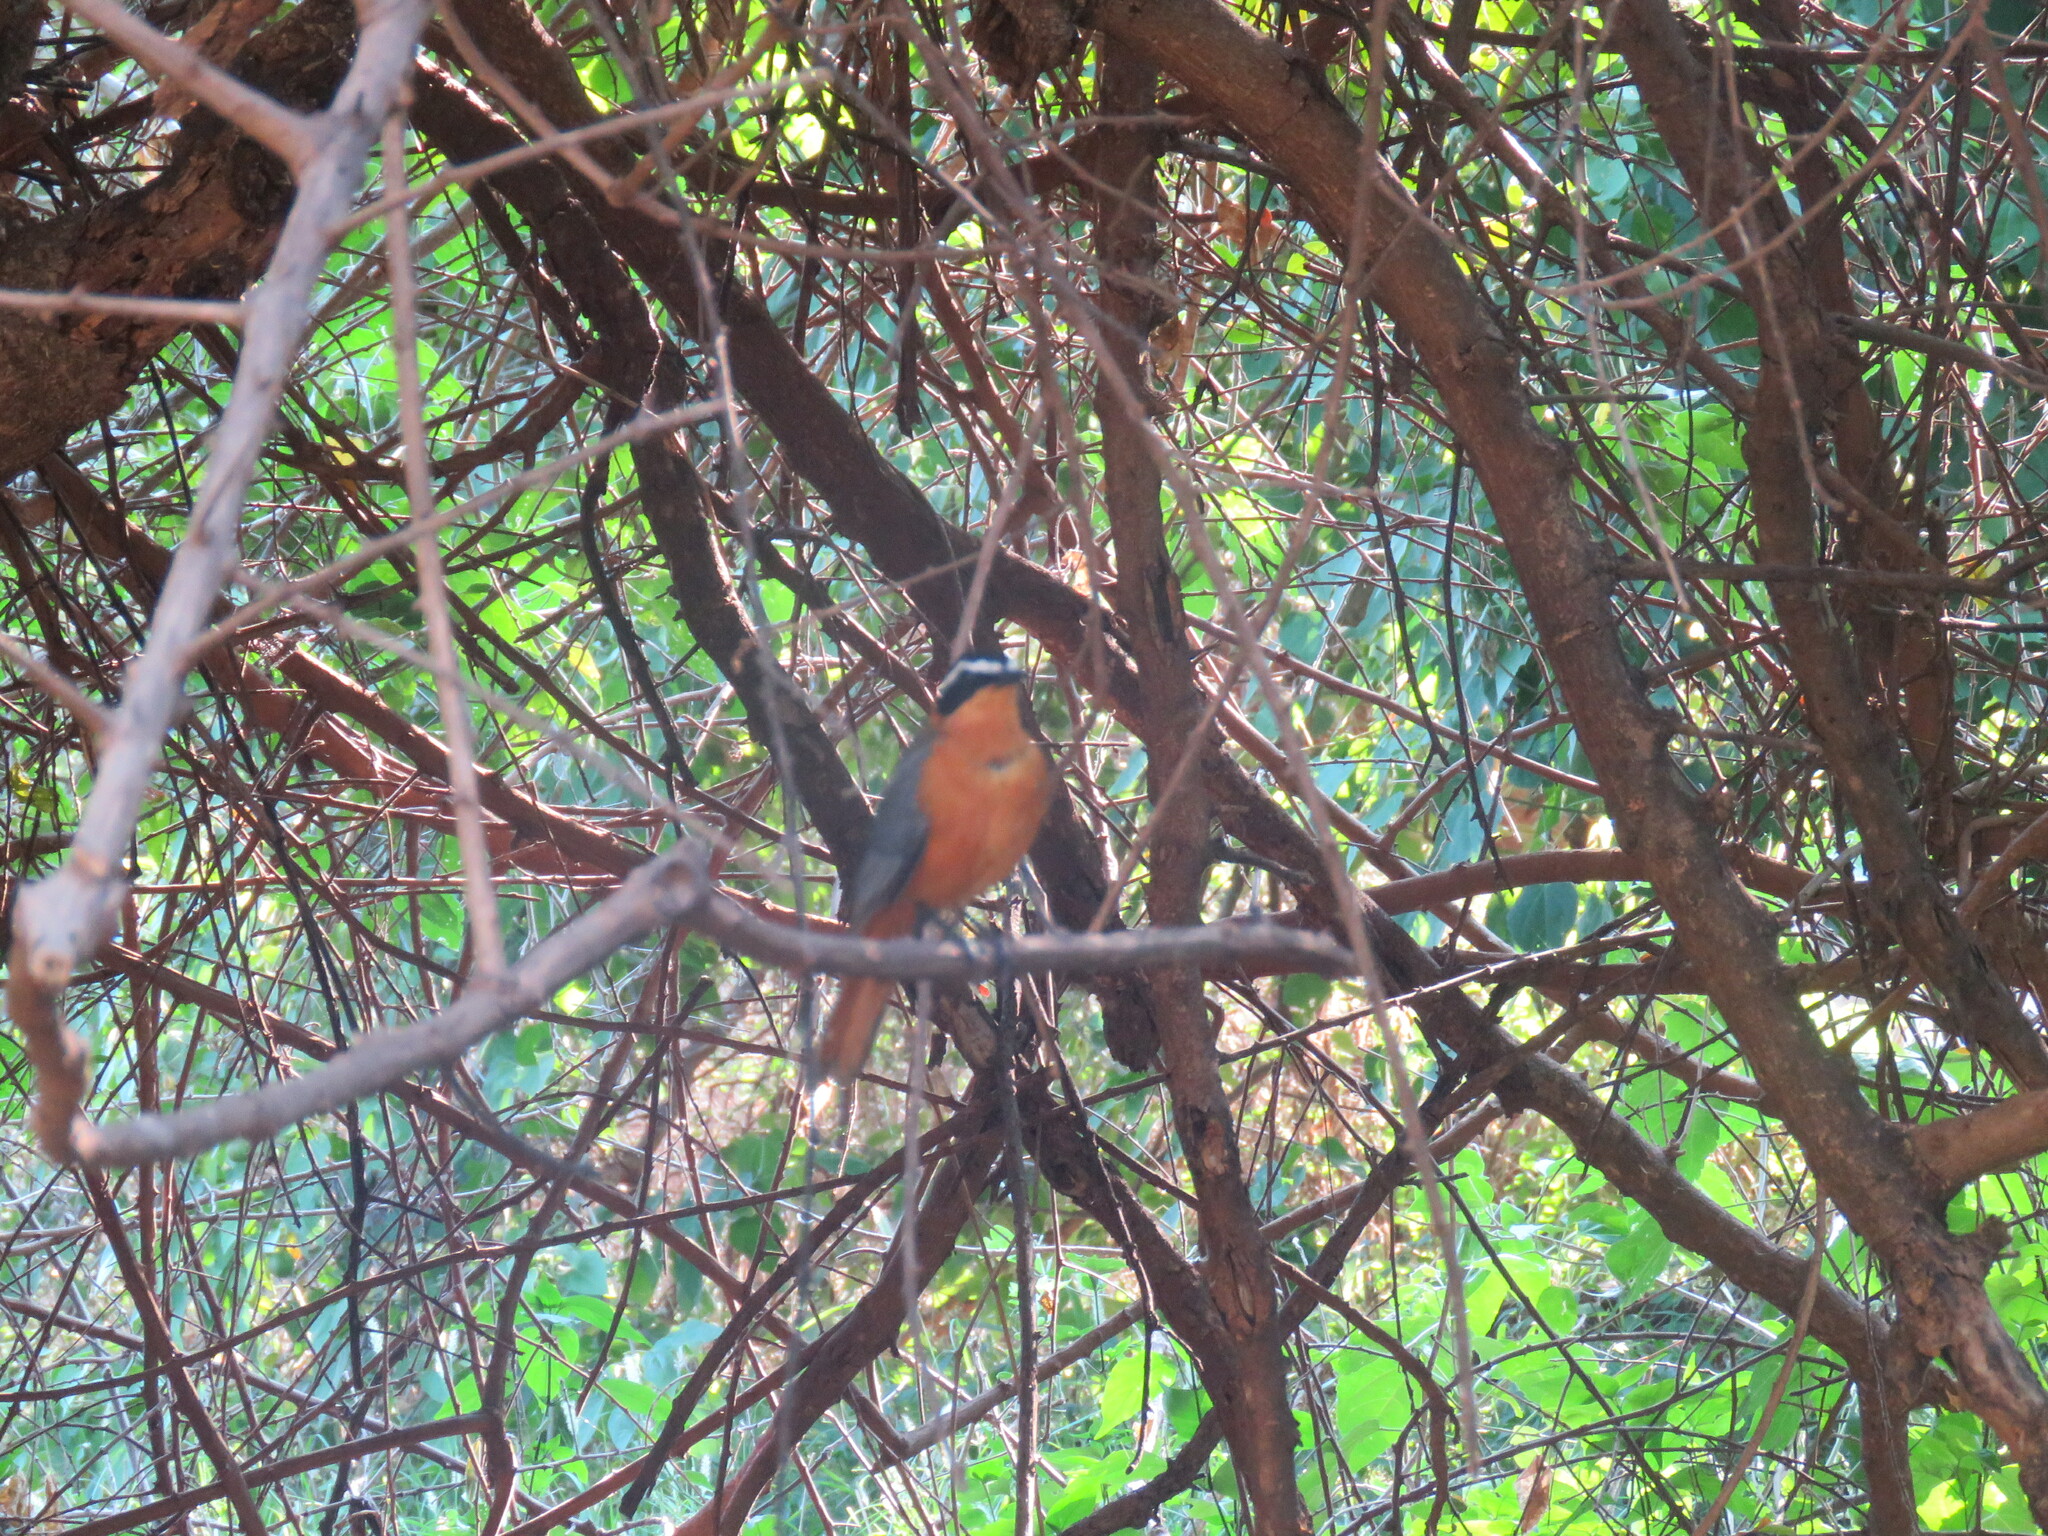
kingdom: Animalia
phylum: Chordata
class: Aves
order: Passeriformes
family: Muscicapidae
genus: Cossypha
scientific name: Cossypha heuglini
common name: White-browed robin-chat
